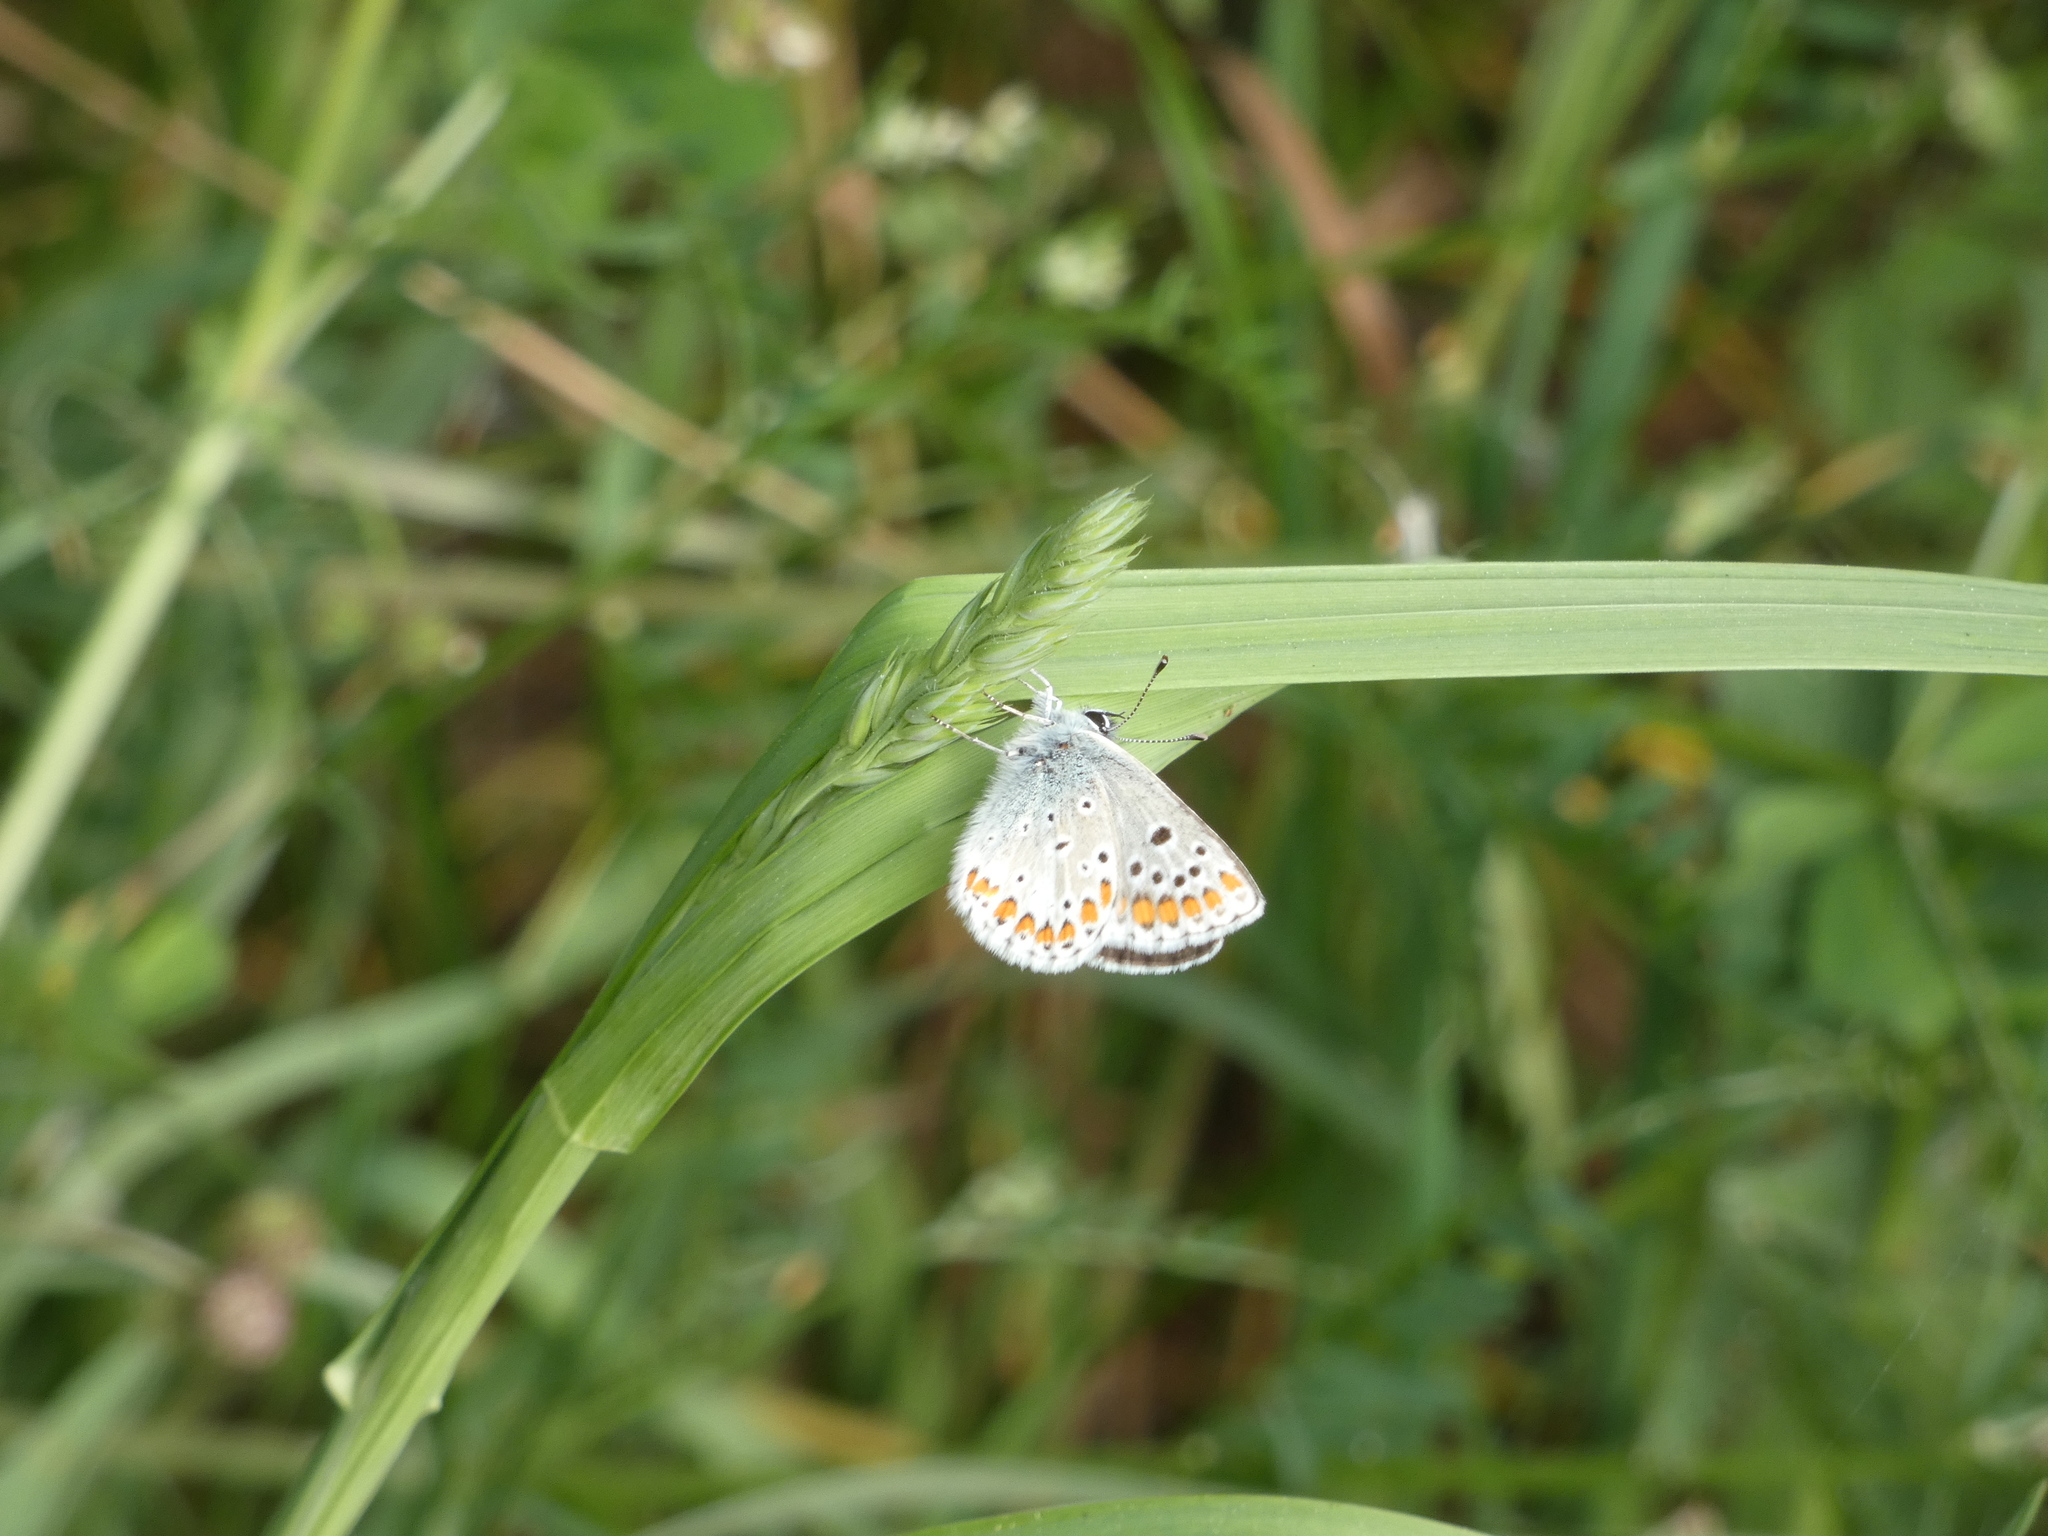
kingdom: Animalia
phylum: Arthropoda
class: Insecta
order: Lepidoptera
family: Lycaenidae
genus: Aricia
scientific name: Aricia agestis
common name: Brown argus
